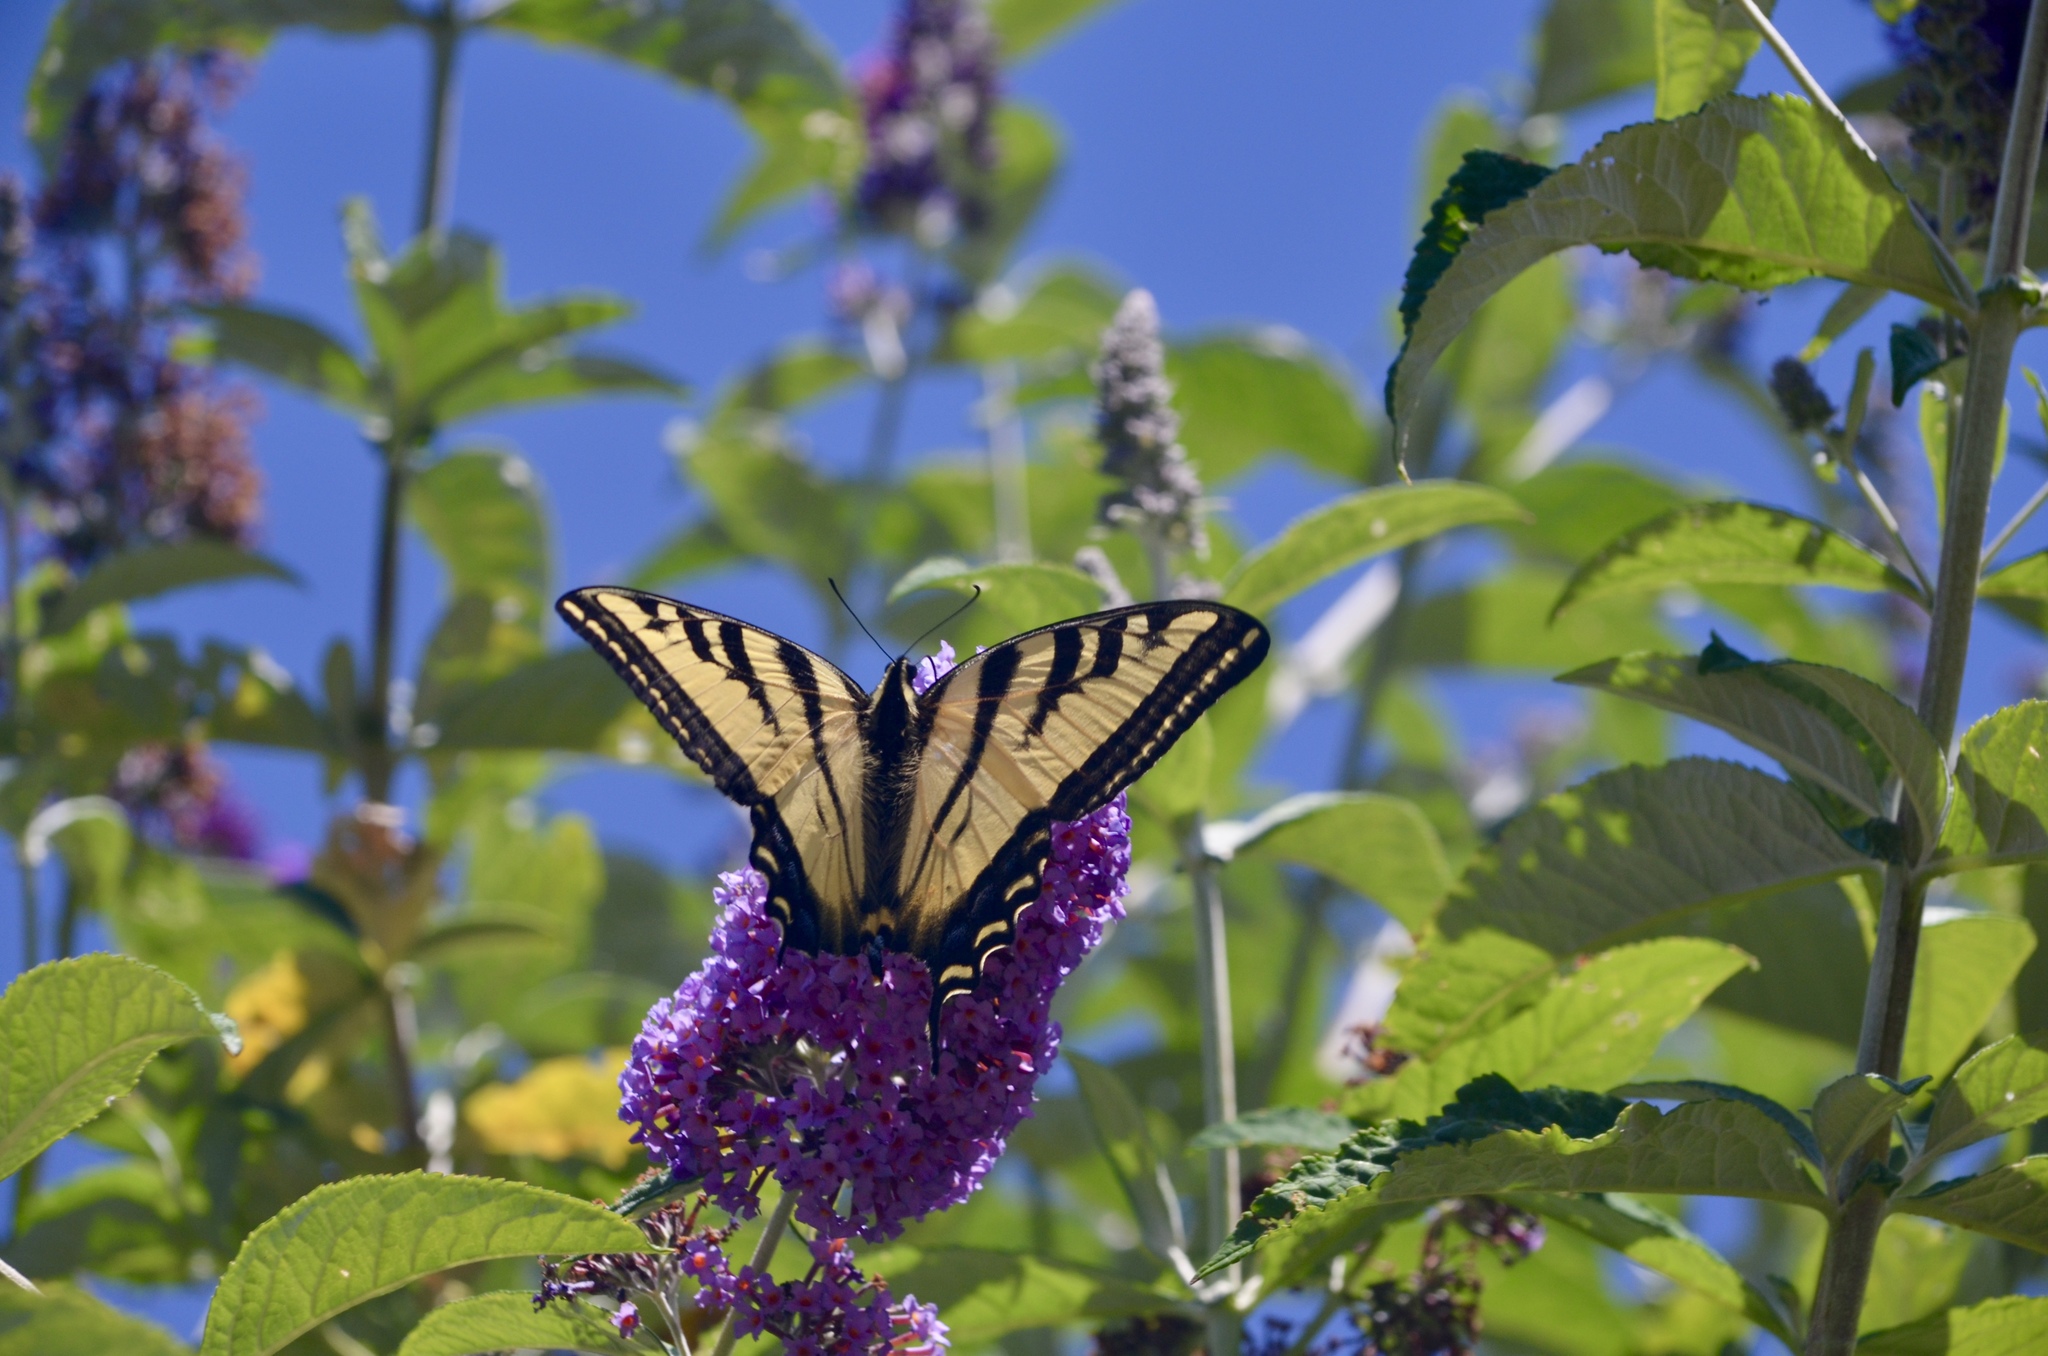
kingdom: Animalia
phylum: Arthropoda
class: Insecta
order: Lepidoptera
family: Papilionidae
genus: Papilio
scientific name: Papilio rutulus
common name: Western tiger swallowtail
